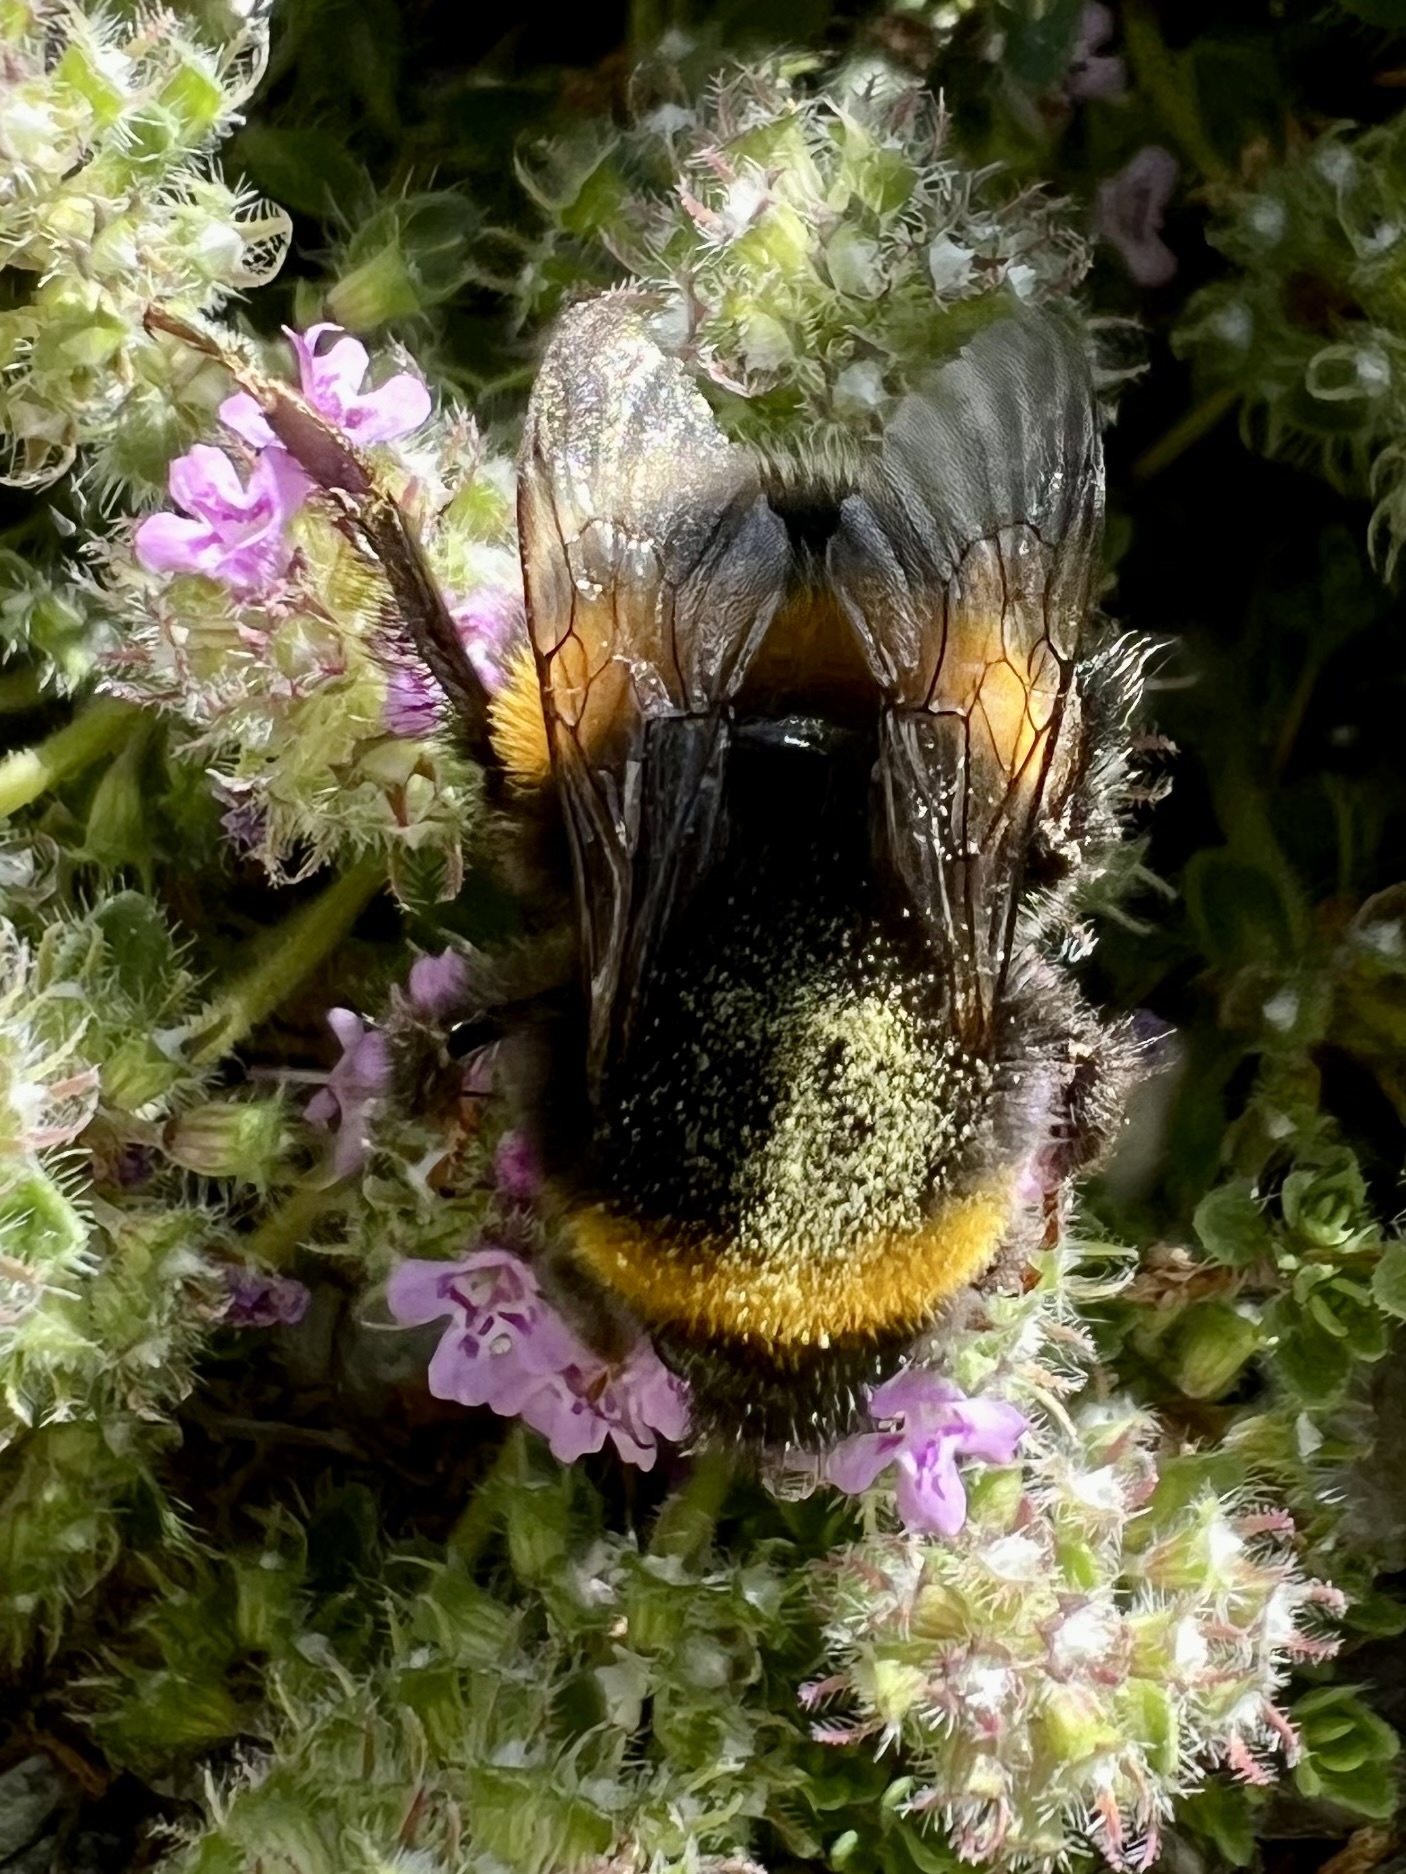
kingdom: Animalia
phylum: Arthropoda
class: Insecta
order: Hymenoptera
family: Apidae
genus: Bombus
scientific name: Bombus terrestris
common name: Buff-tailed bumblebee
